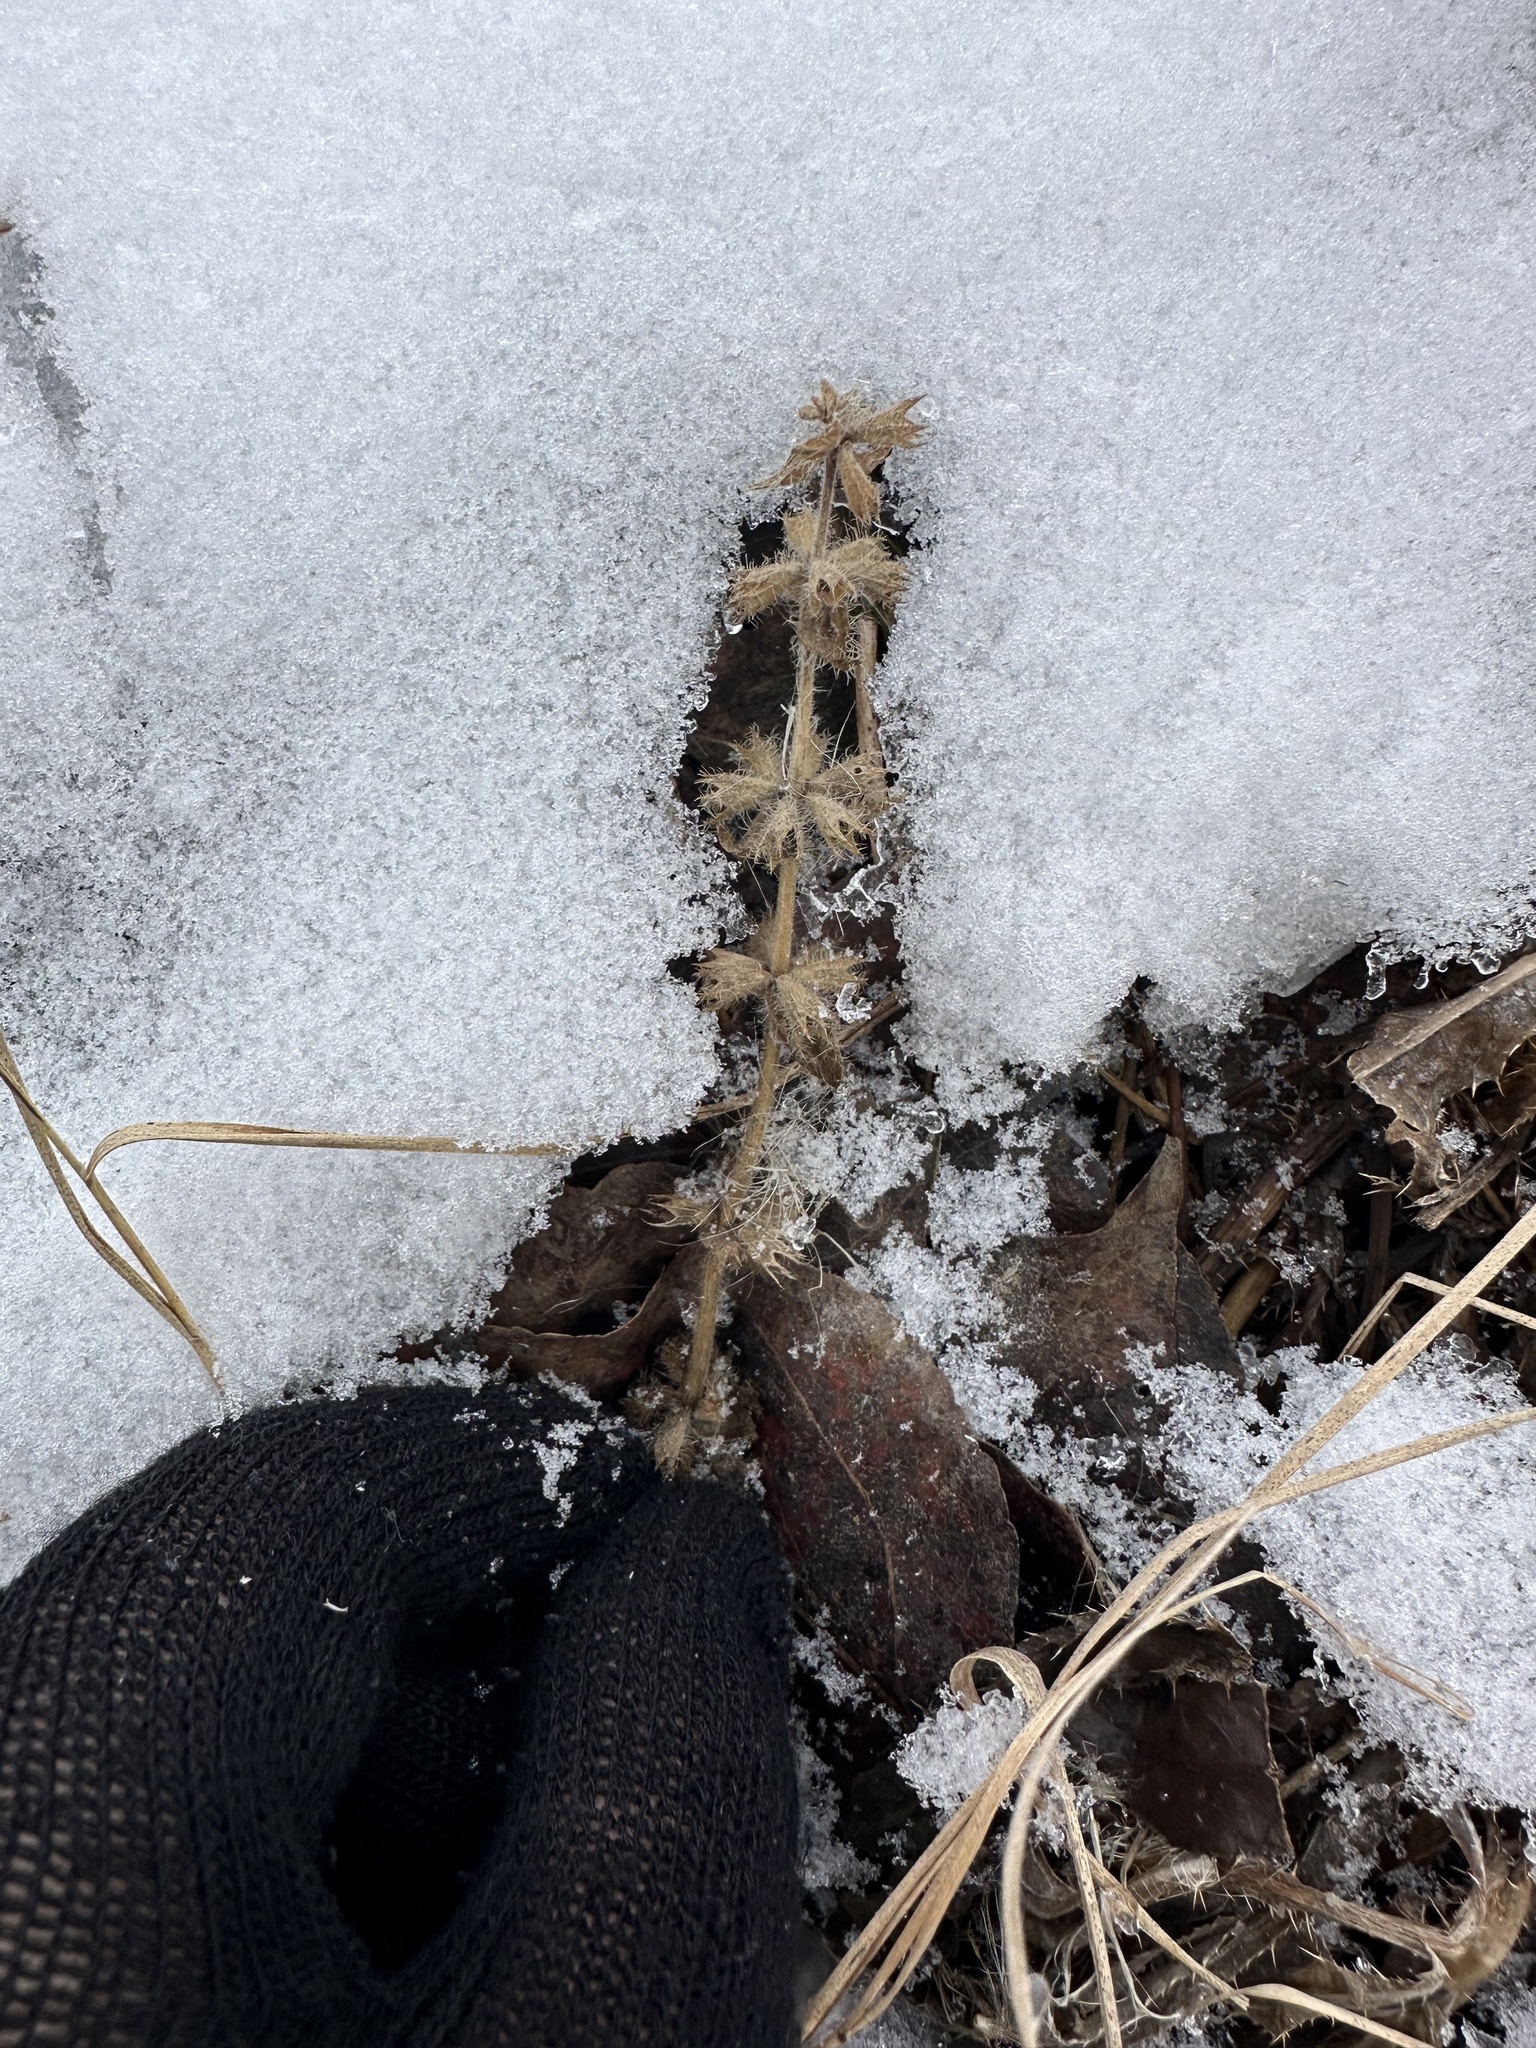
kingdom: Plantae
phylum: Tracheophyta
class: Magnoliopsida
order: Lamiales
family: Lamiaceae
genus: Stachys
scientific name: Stachys pilosa
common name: Hairy hedge-nettle
